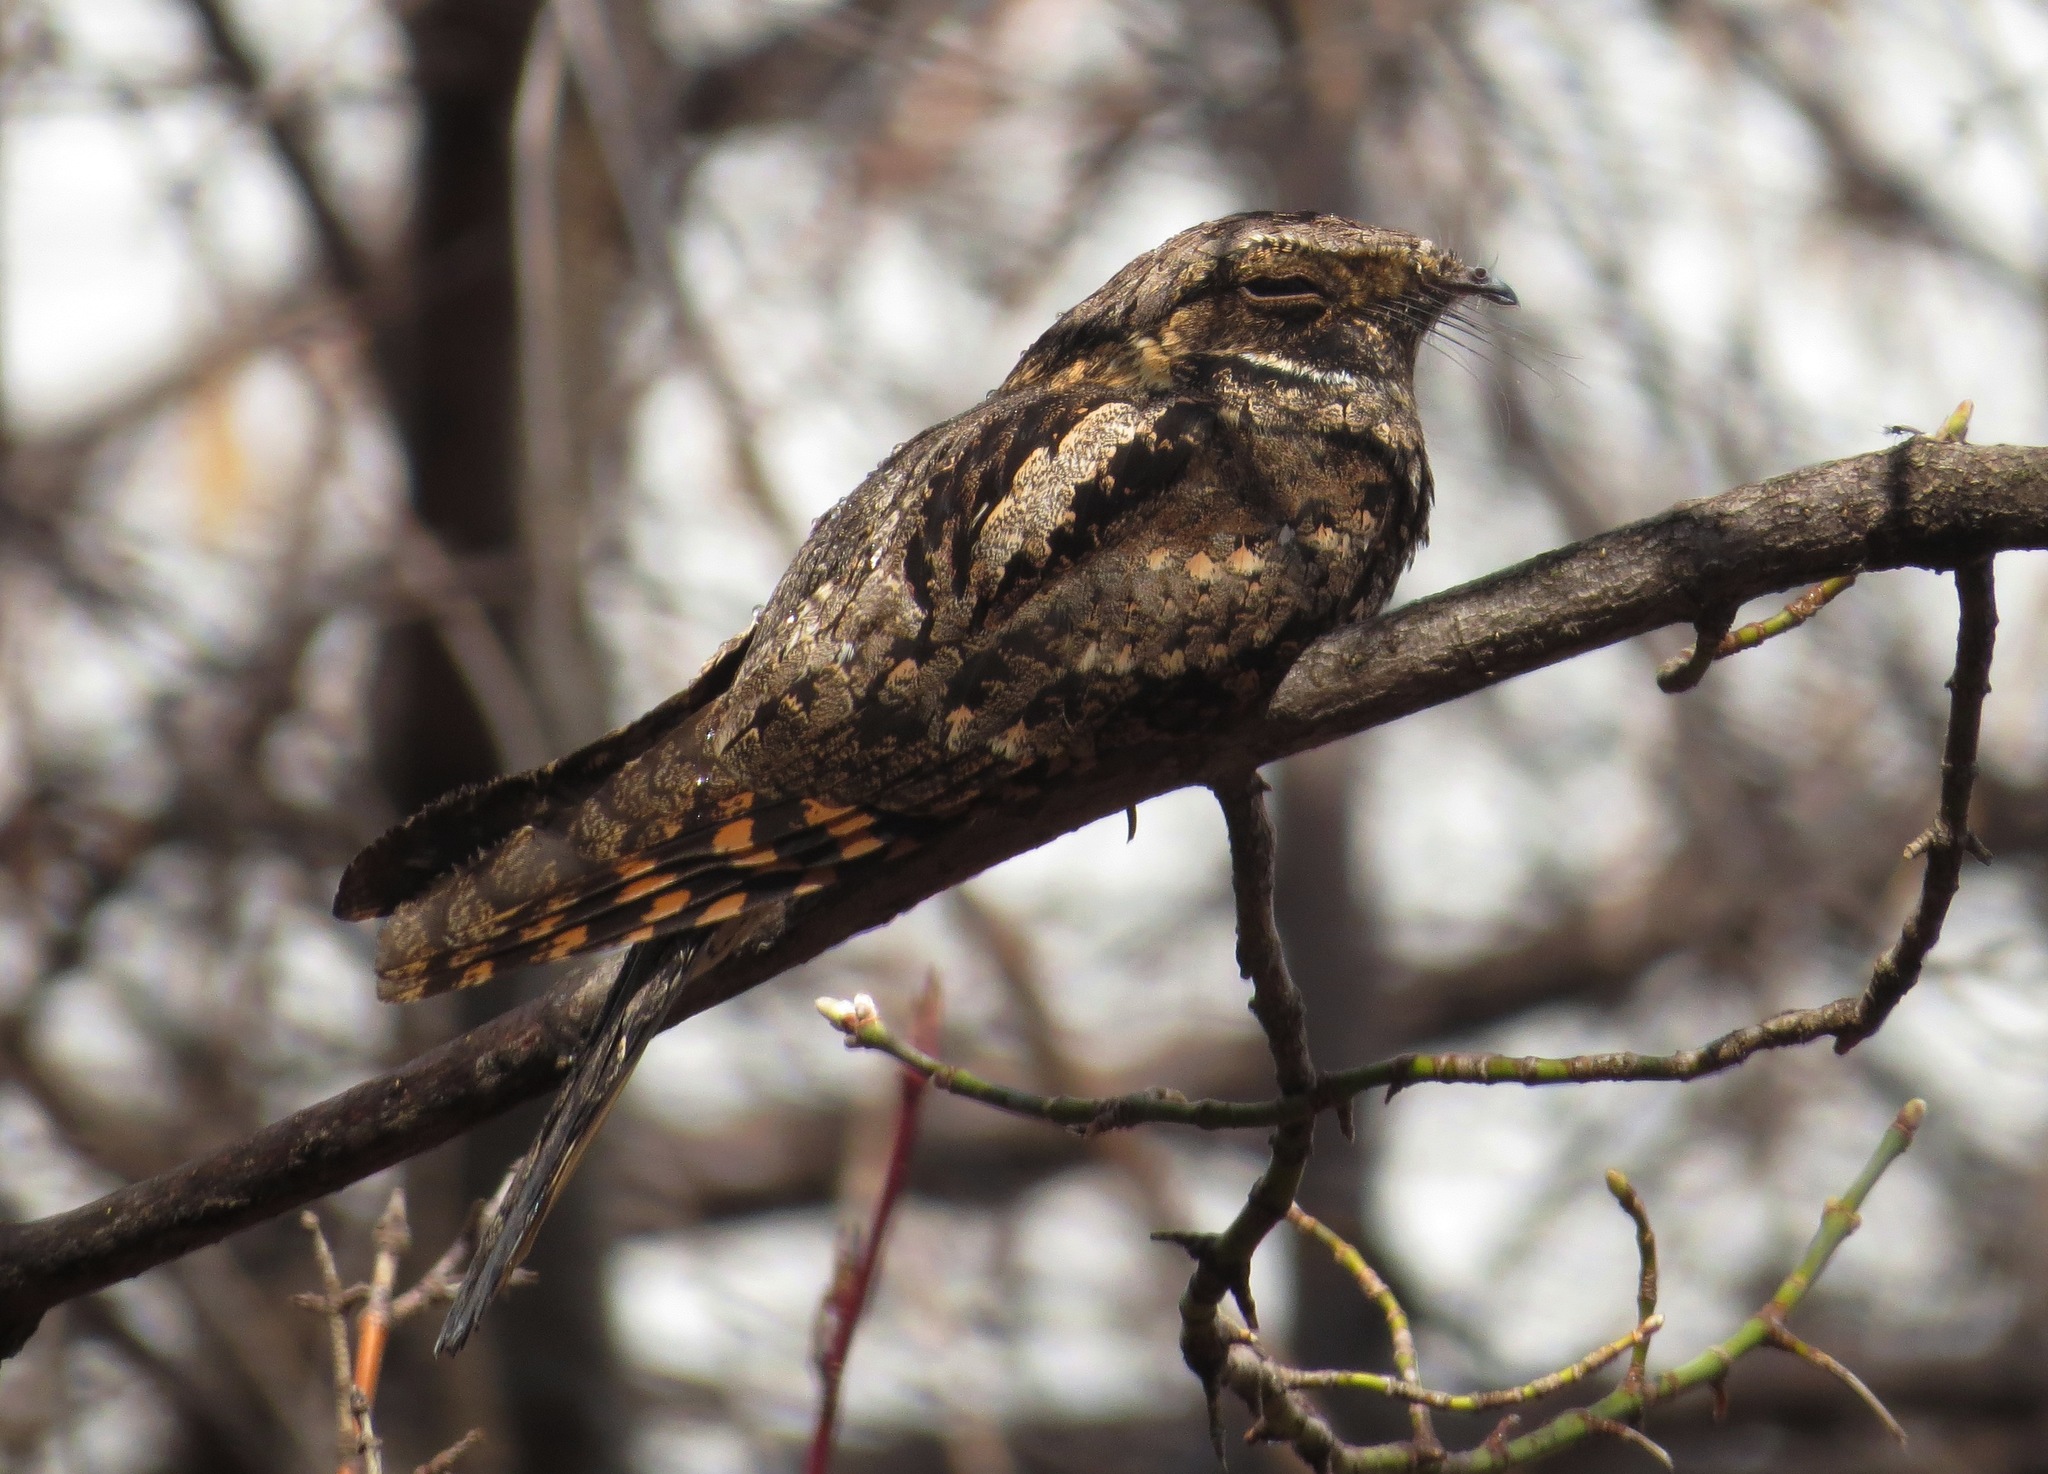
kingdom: Animalia
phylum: Chordata
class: Aves
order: Caprimulgiformes
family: Caprimulgidae
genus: Antrostomus
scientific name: Antrostomus vociferus
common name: Eastern whip-poor-will
